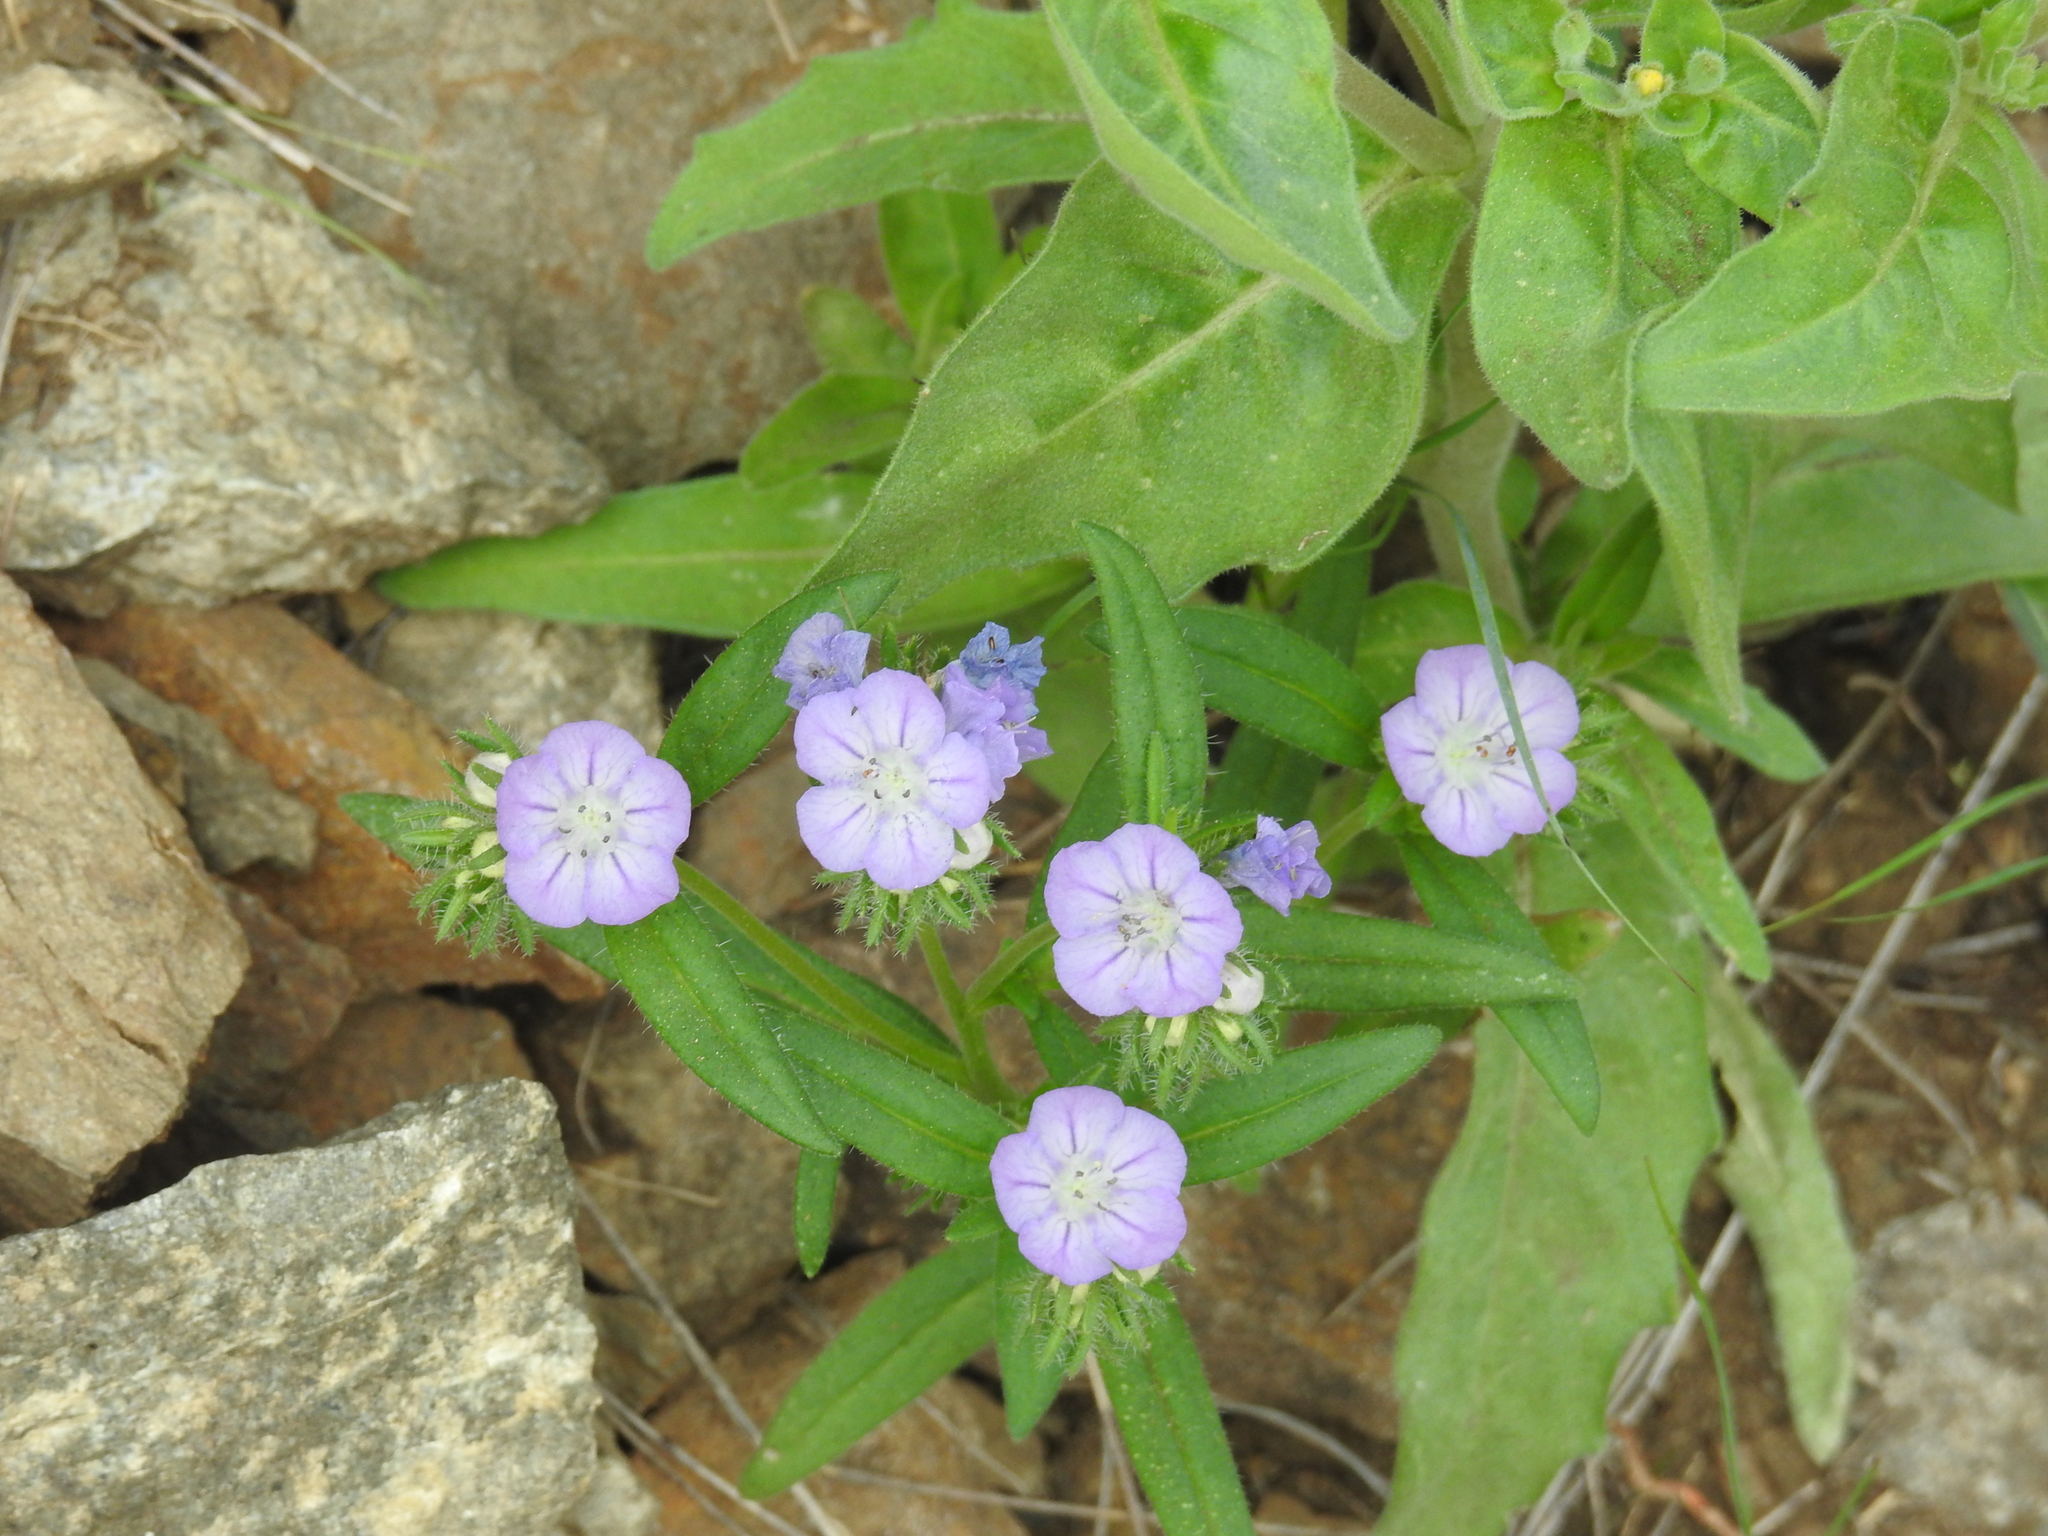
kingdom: Plantae
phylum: Tracheophyta
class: Magnoliopsida
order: Boraginales
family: Hydrophyllaceae
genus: Phacelia
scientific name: Phacelia linearis
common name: Linear-leaved phacelia
